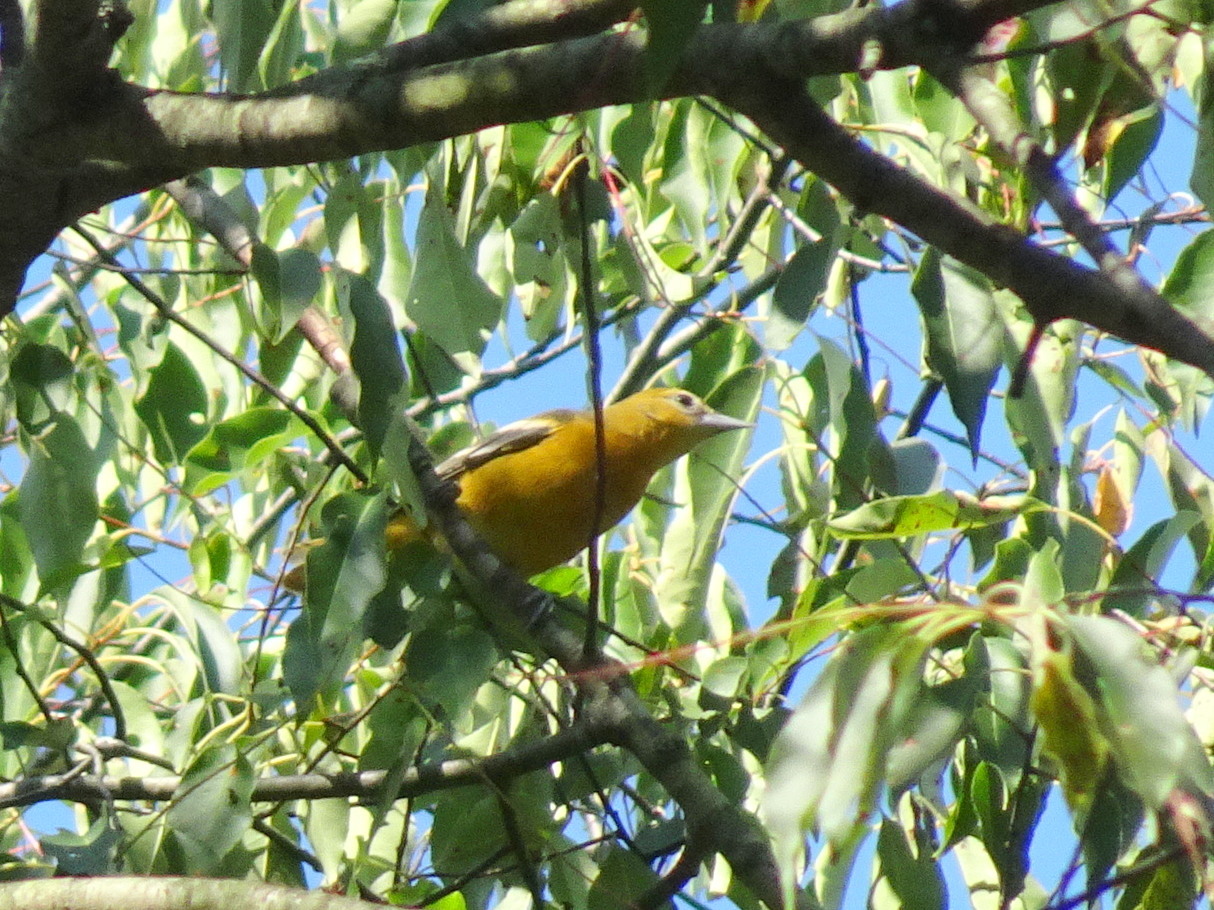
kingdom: Animalia
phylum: Chordata
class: Aves
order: Passeriformes
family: Icteridae
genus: Icterus
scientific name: Icterus galbula
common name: Baltimore oriole
